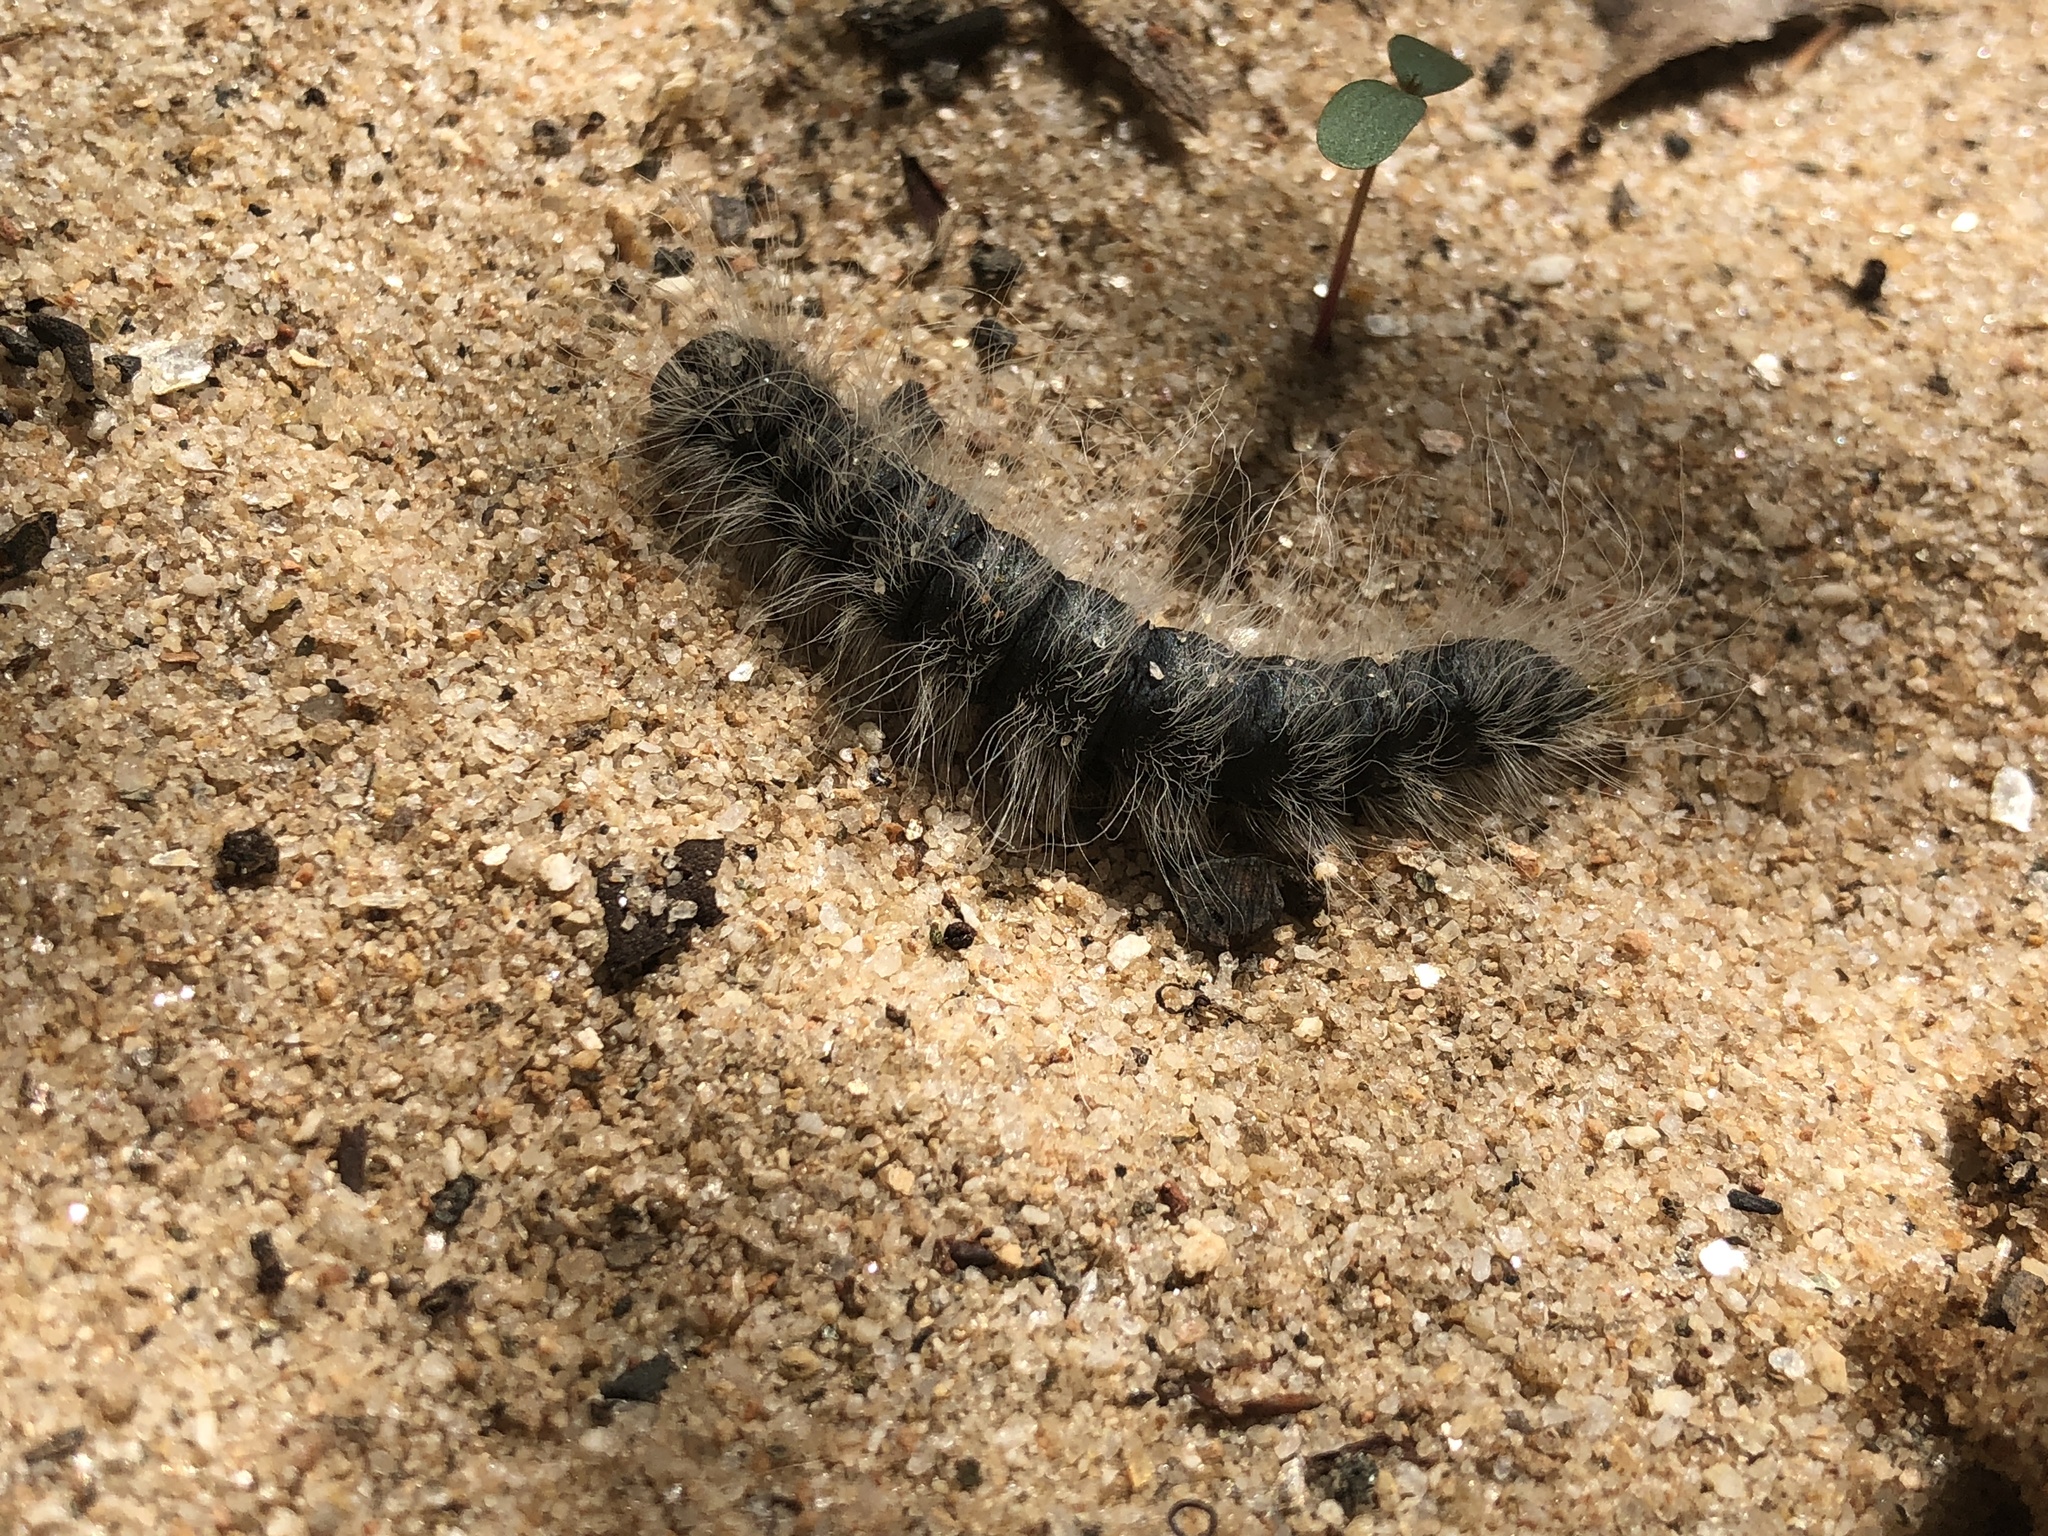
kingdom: Animalia
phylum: Arthropoda
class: Insecta
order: Lepidoptera
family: Notodontidae
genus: Datana
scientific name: Datana integerrima
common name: Walnut caterpillar
